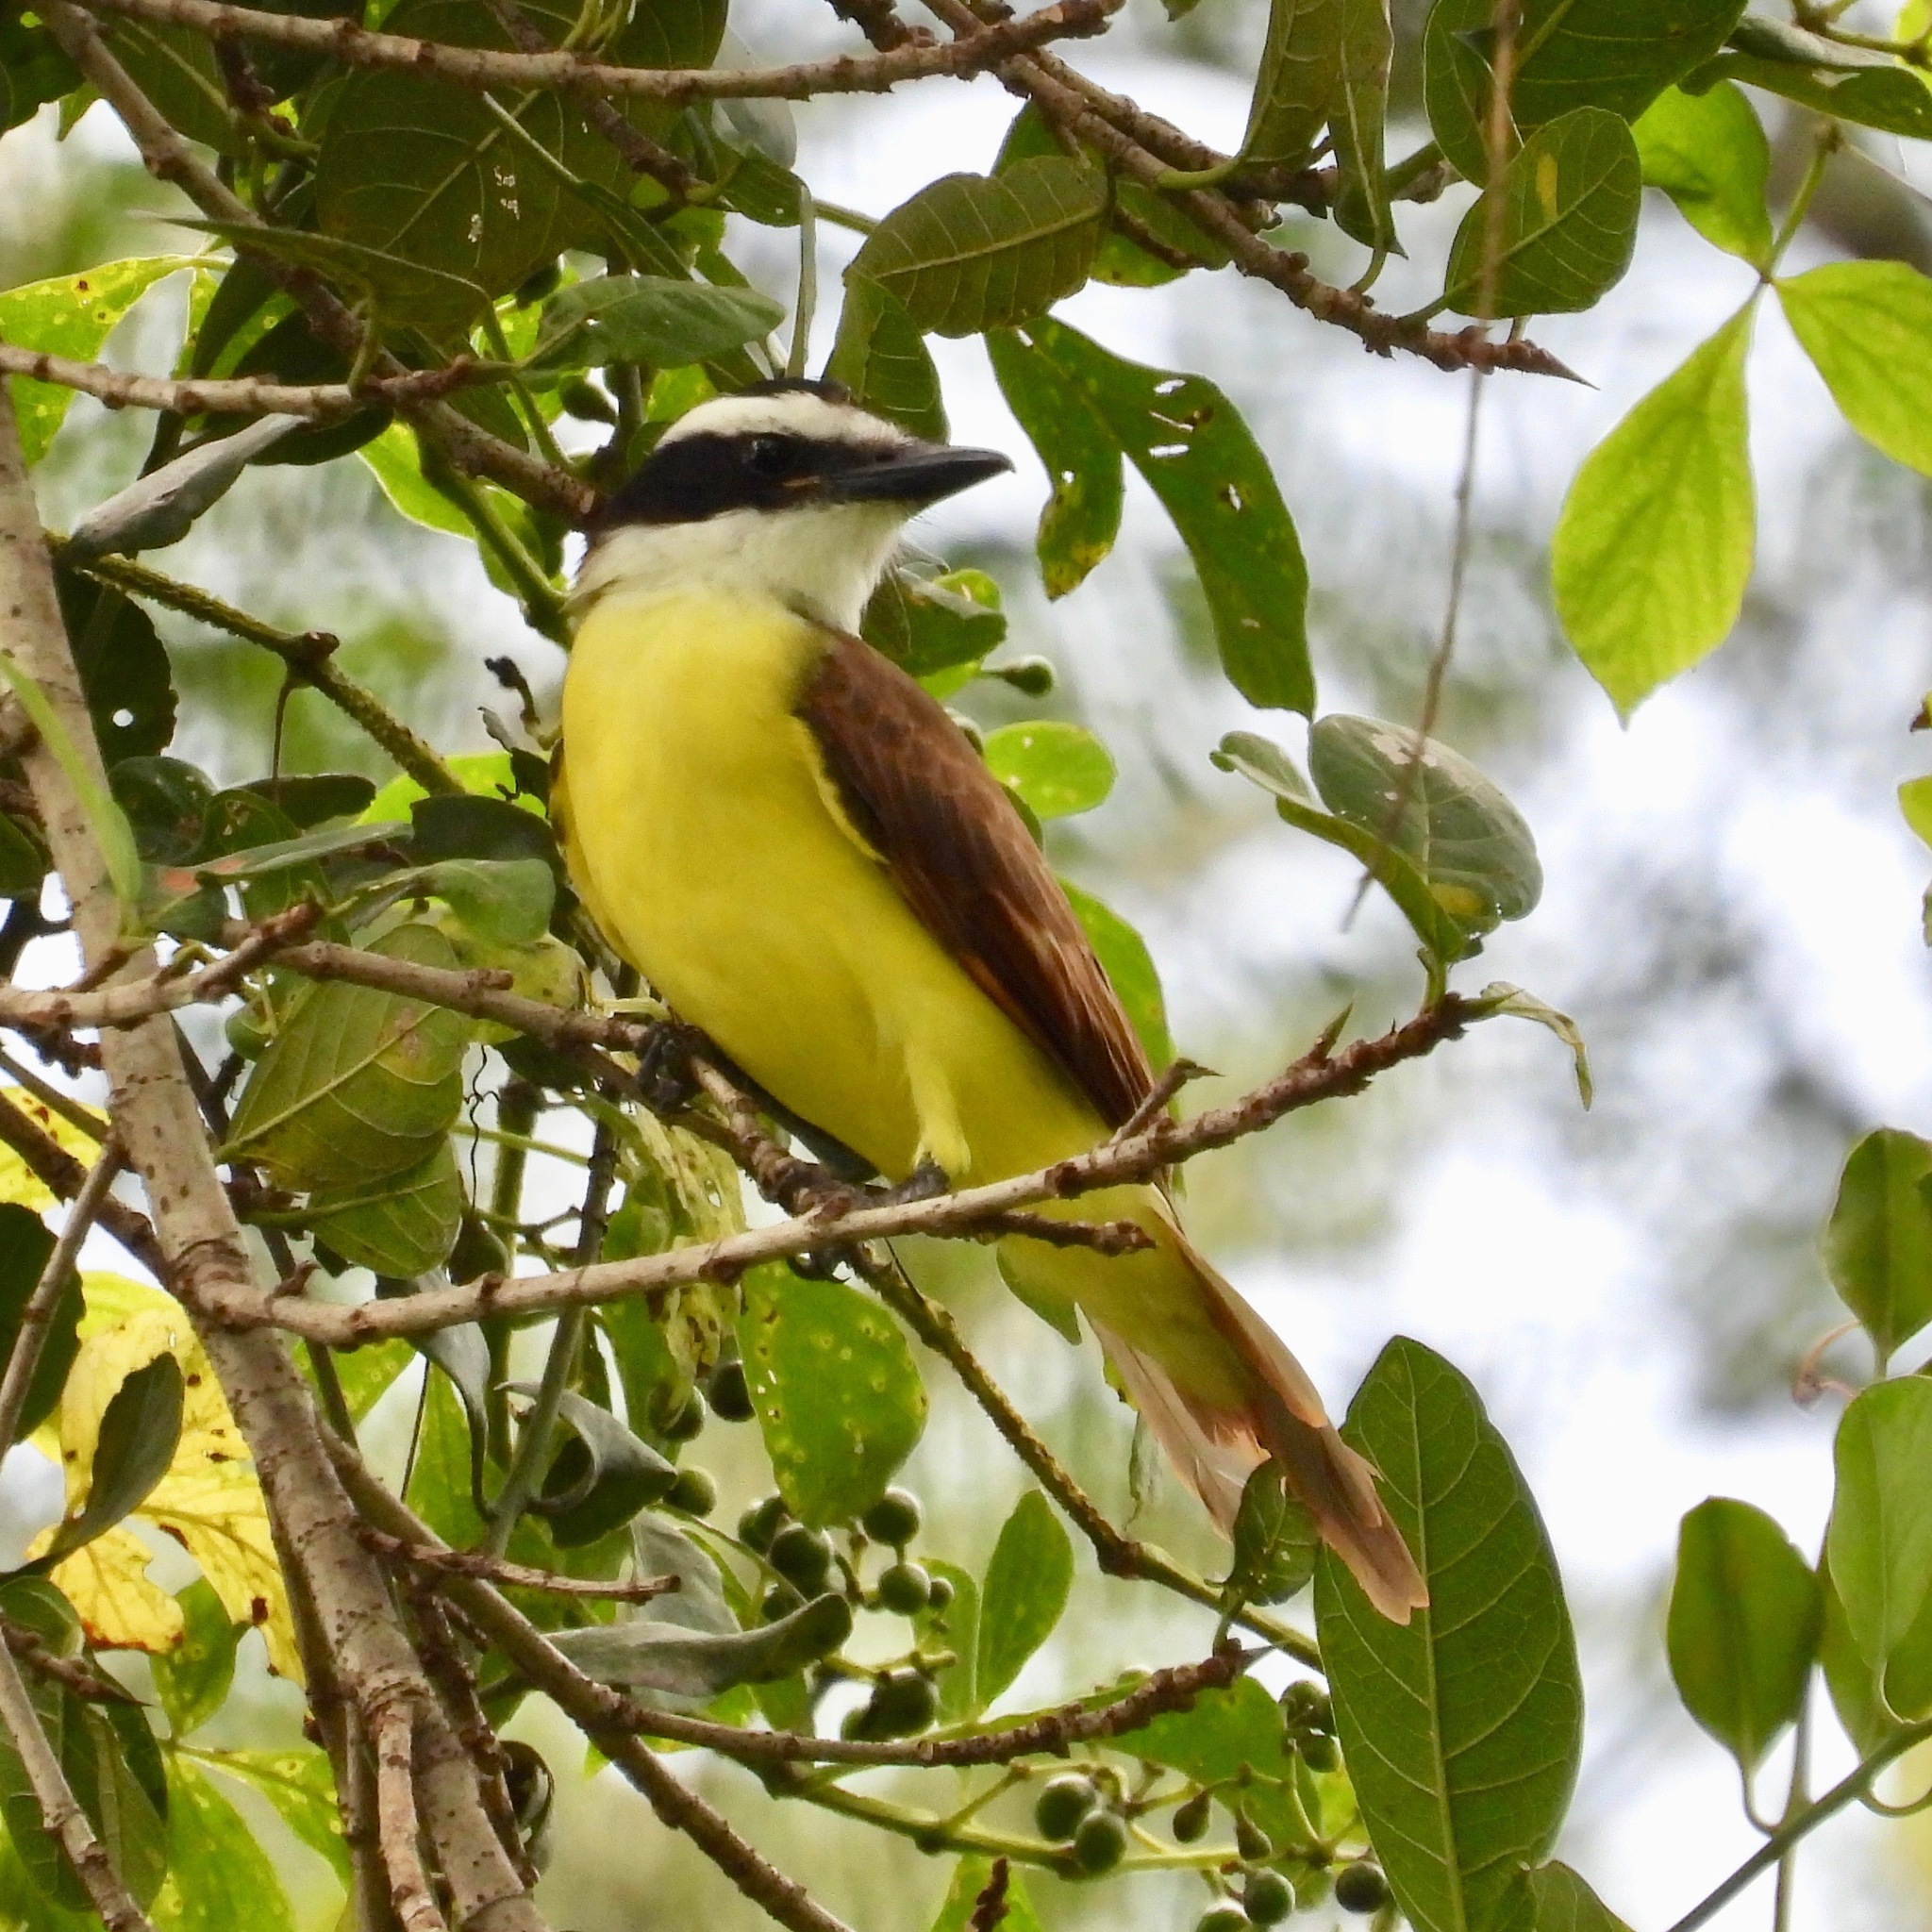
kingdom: Animalia
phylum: Chordata
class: Aves
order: Passeriformes
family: Tyrannidae
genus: Pitangus
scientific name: Pitangus sulphuratus
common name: Great kiskadee
